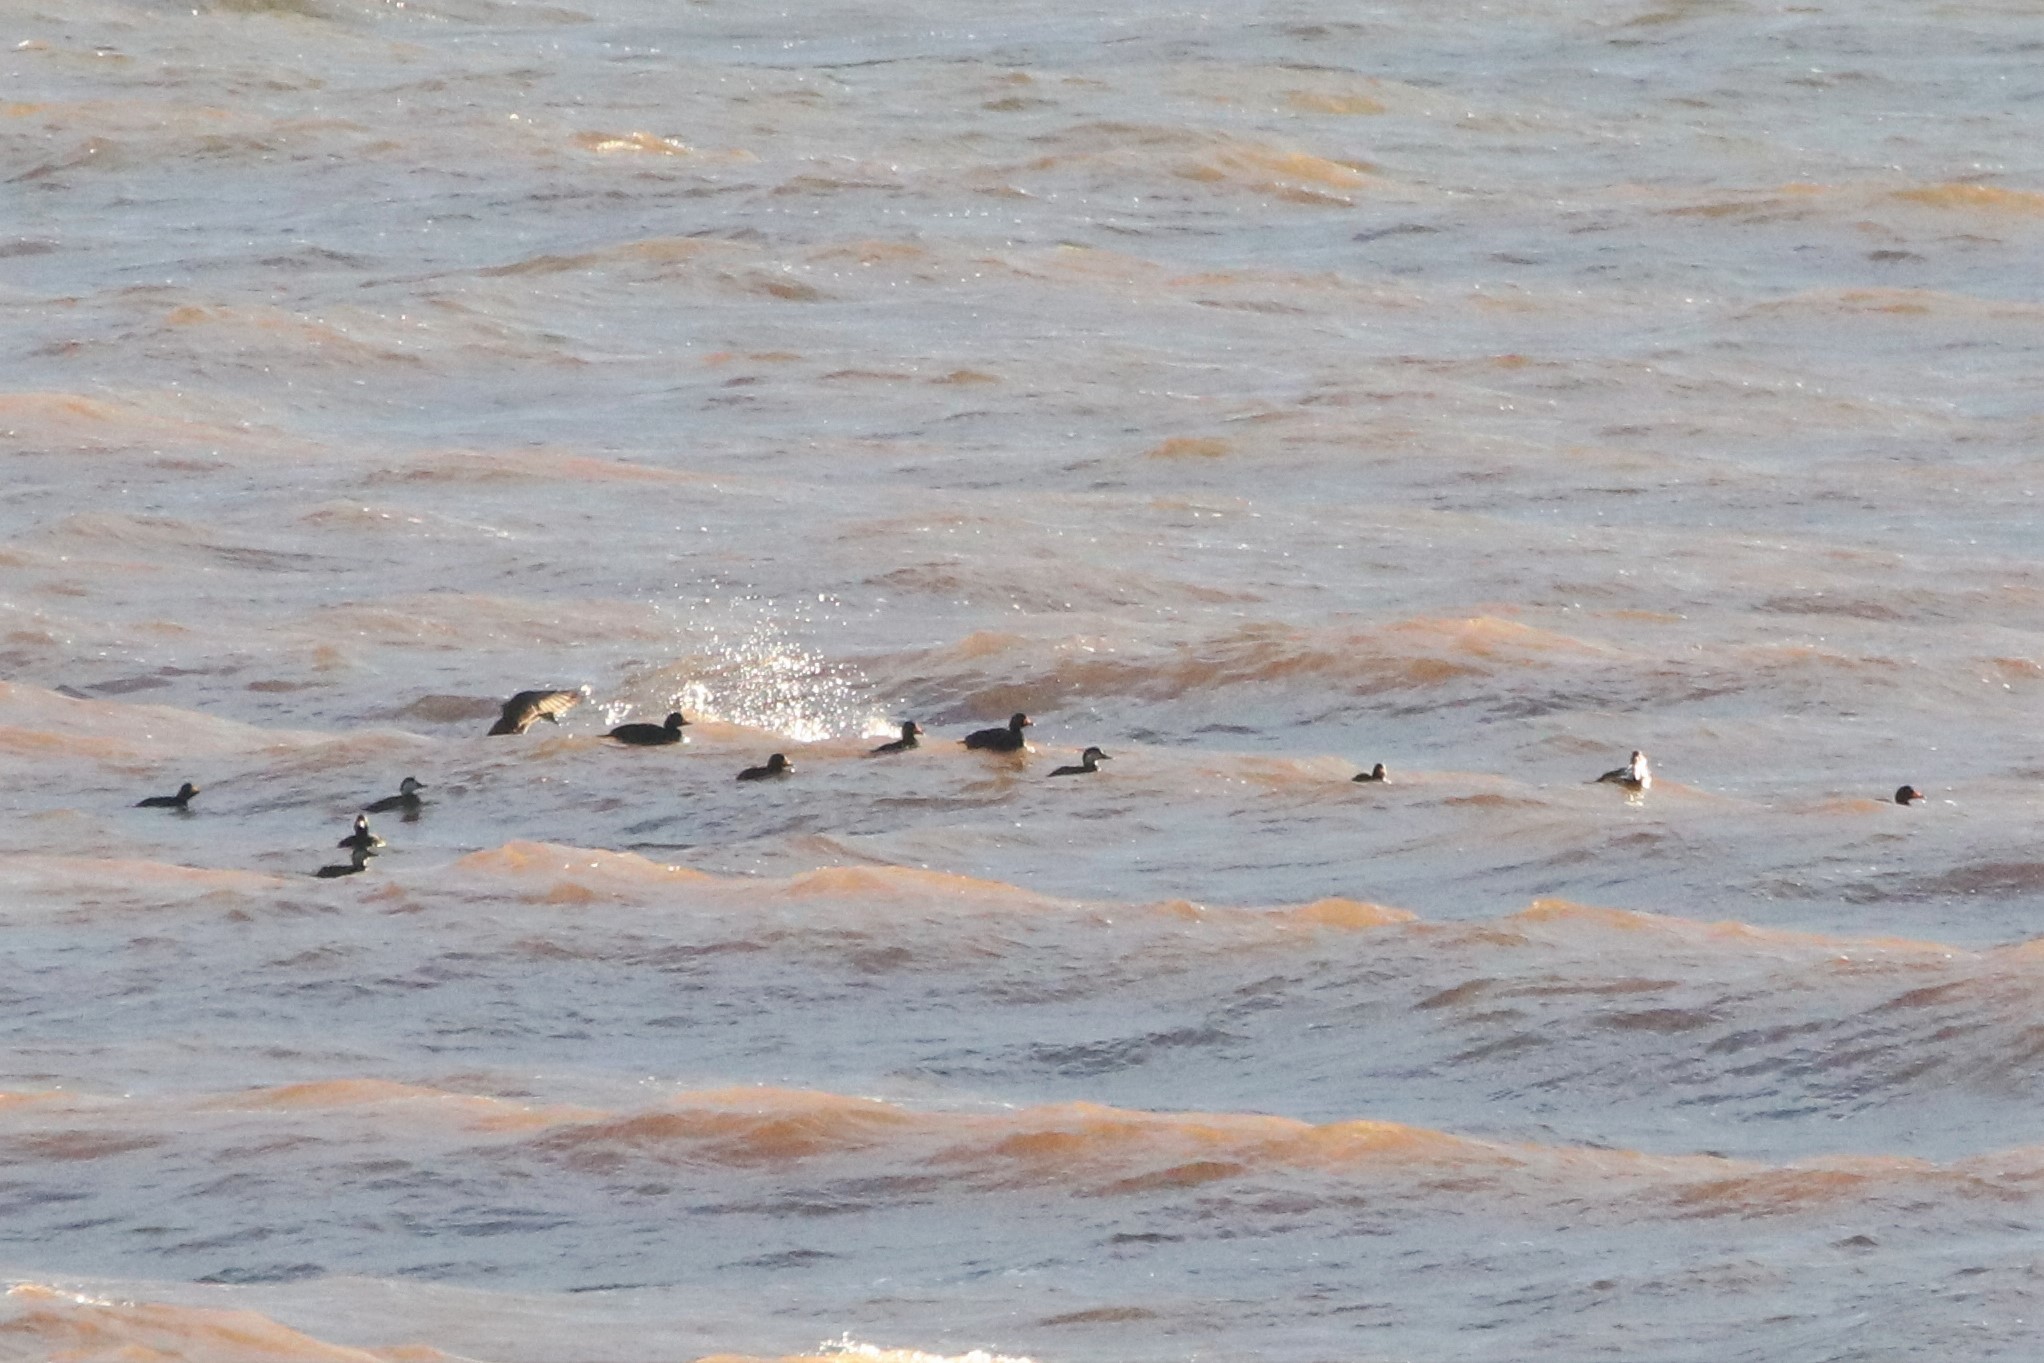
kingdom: Animalia
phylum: Chordata
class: Aves
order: Anseriformes
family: Anatidae
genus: Melanitta
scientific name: Melanitta americana
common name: Black scoter
